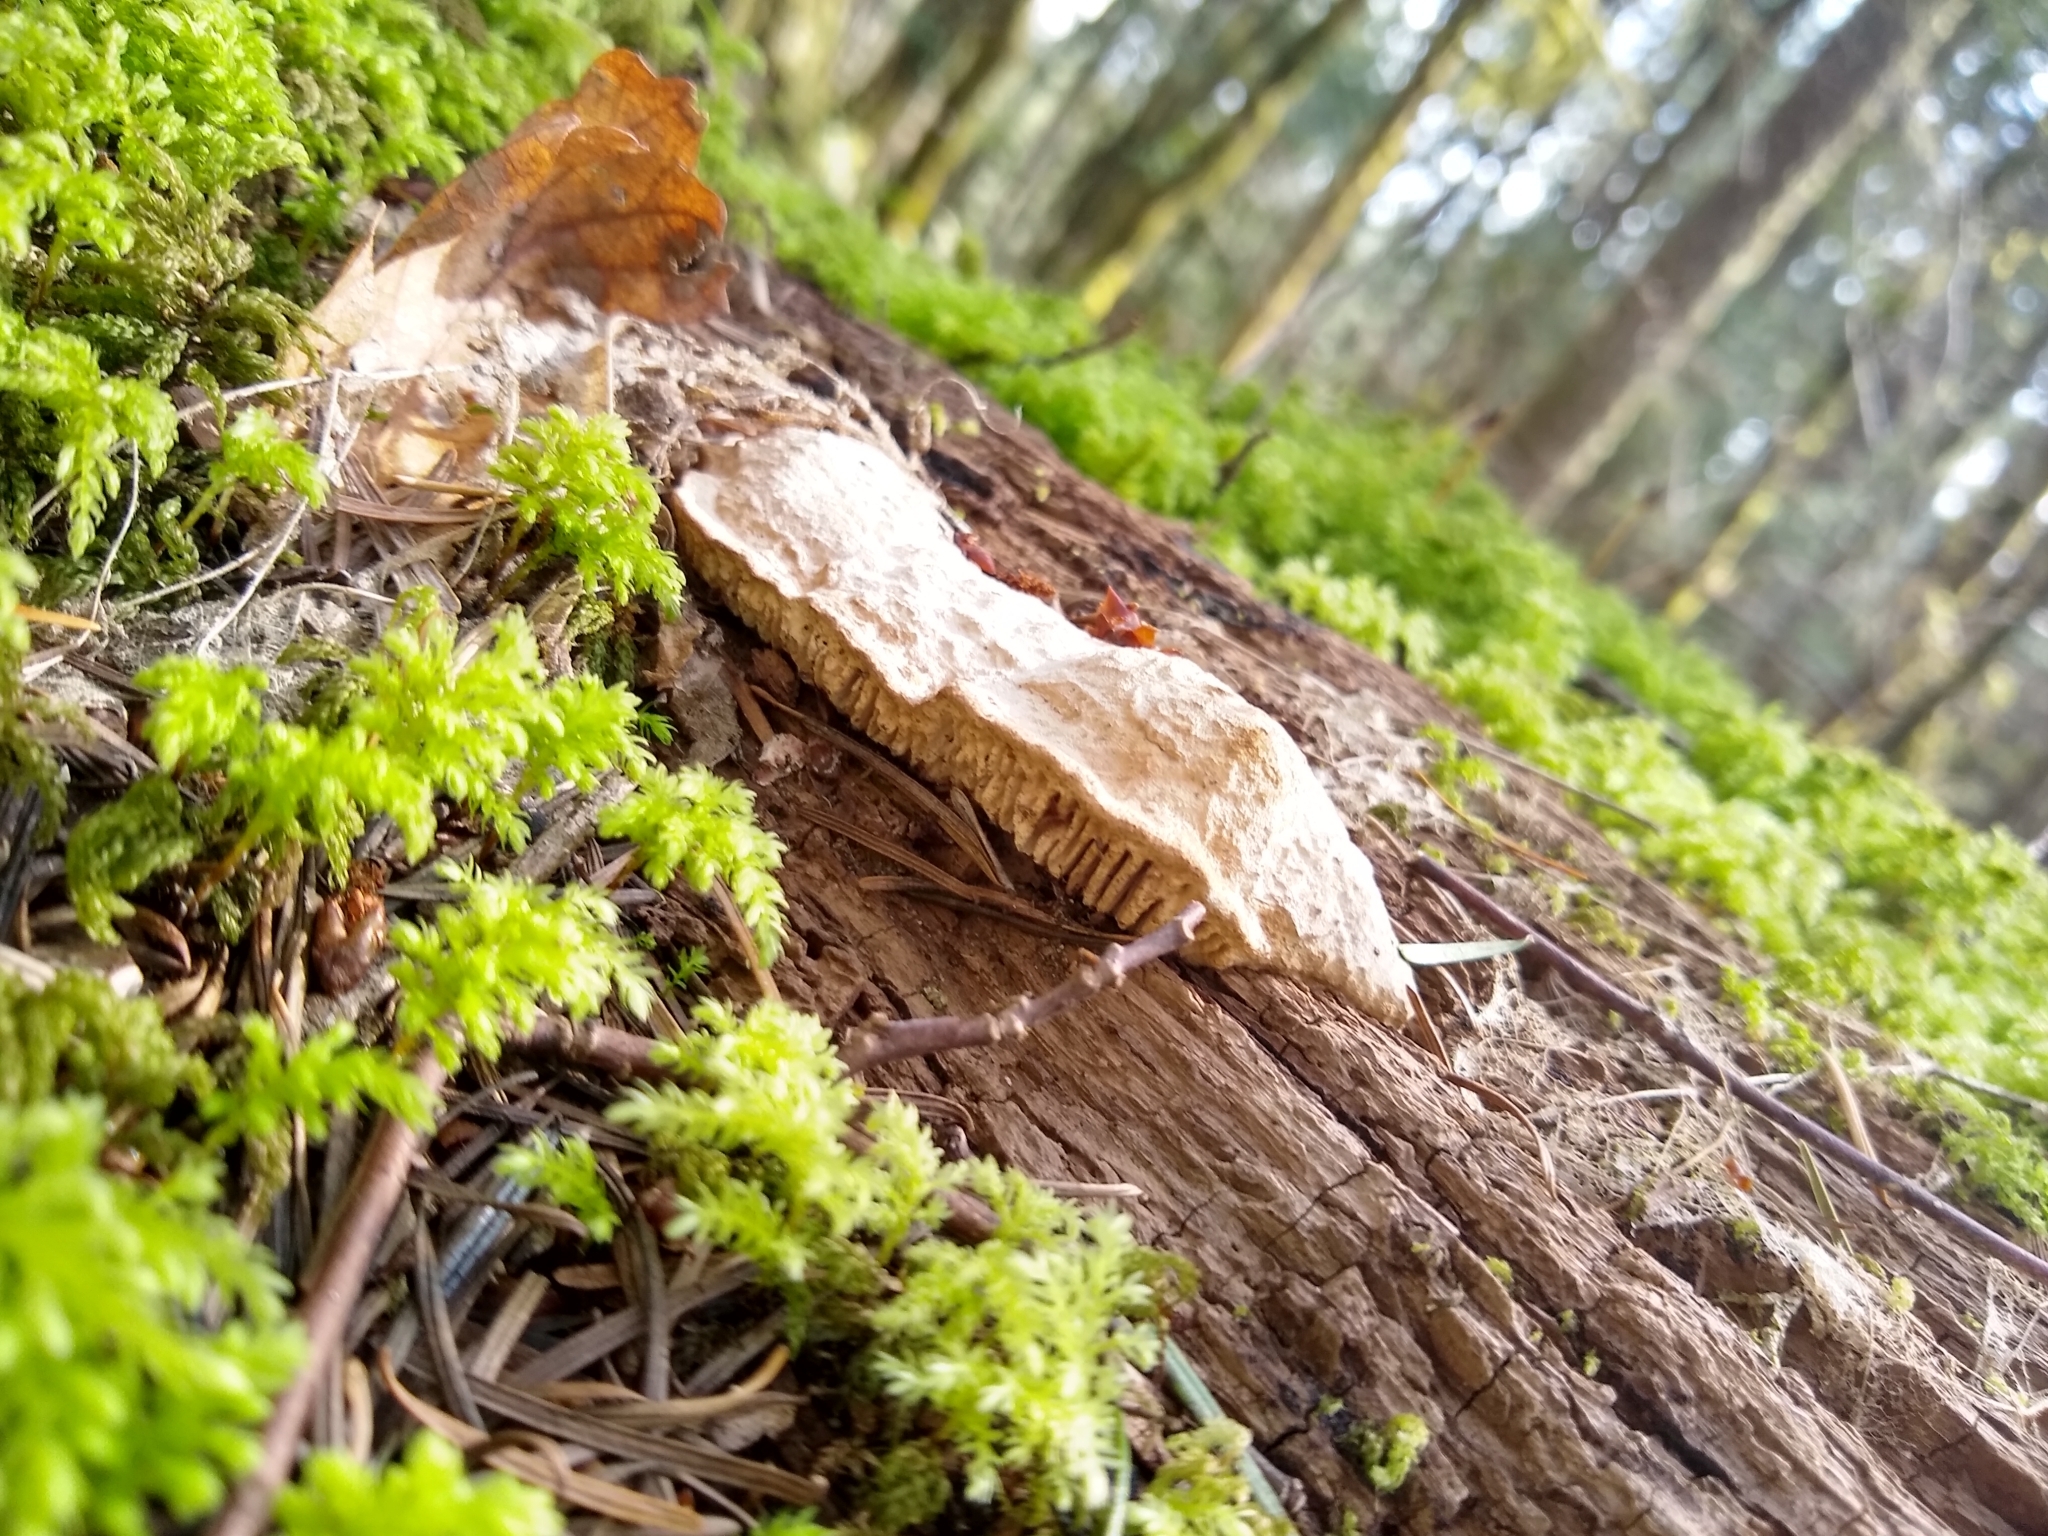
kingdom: Fungi
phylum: Basidiomycota
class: Agaricomycetes
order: Polyporales
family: Fomitopsidaceae
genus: Fomitopsis
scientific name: Fomitopsis
